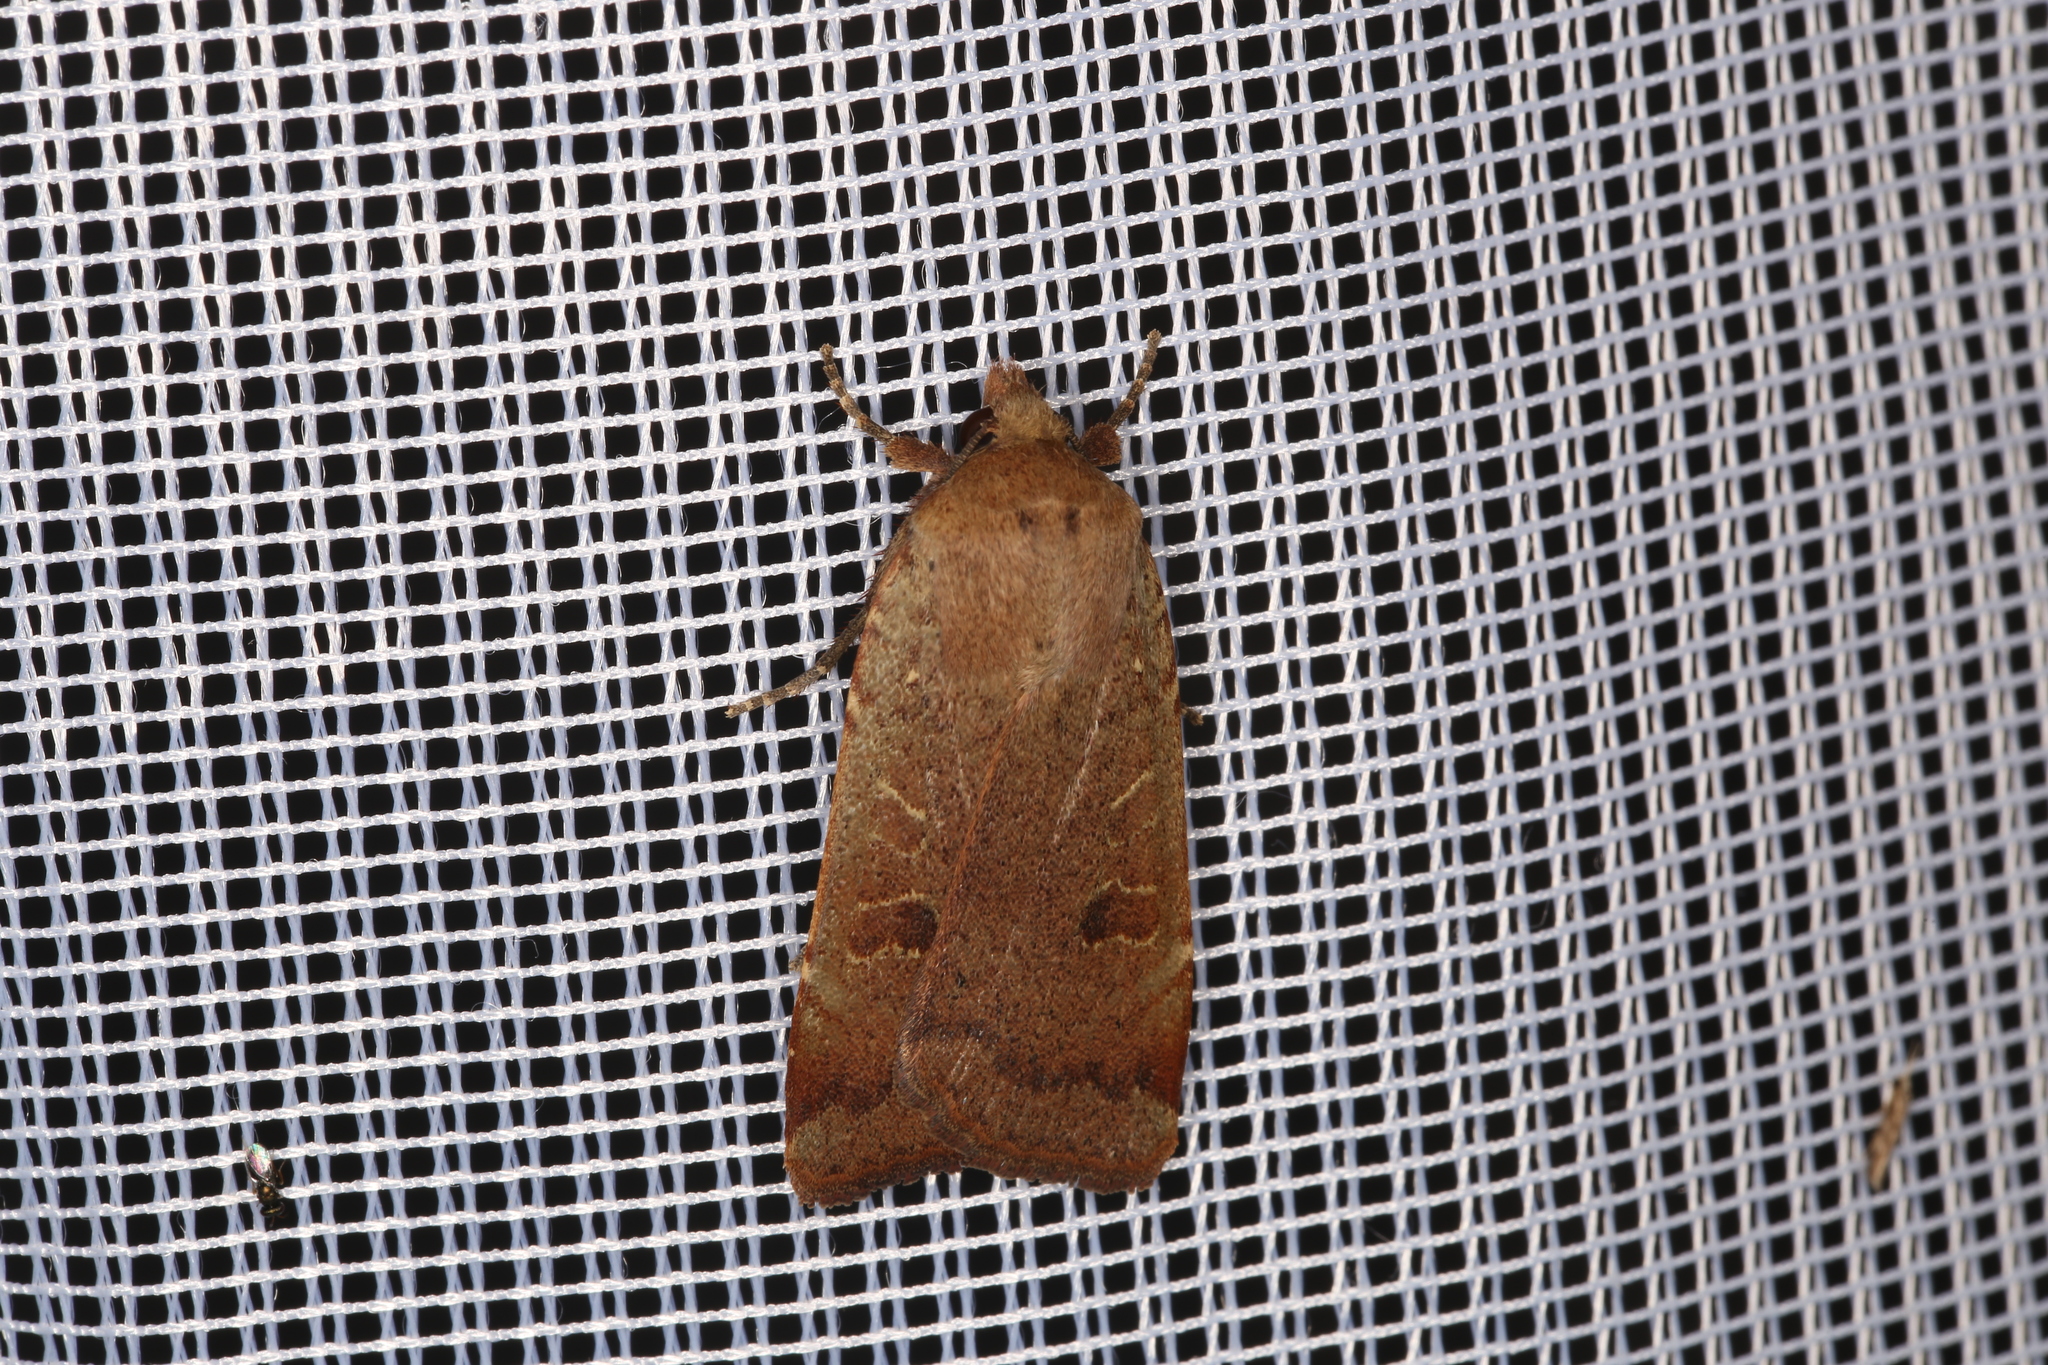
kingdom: Animalia
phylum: Arthropoda
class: Insecta
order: Lepidoptera
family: Noctuidae
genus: Noctua
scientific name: Noctua comes
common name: Lesser yellow underwing
